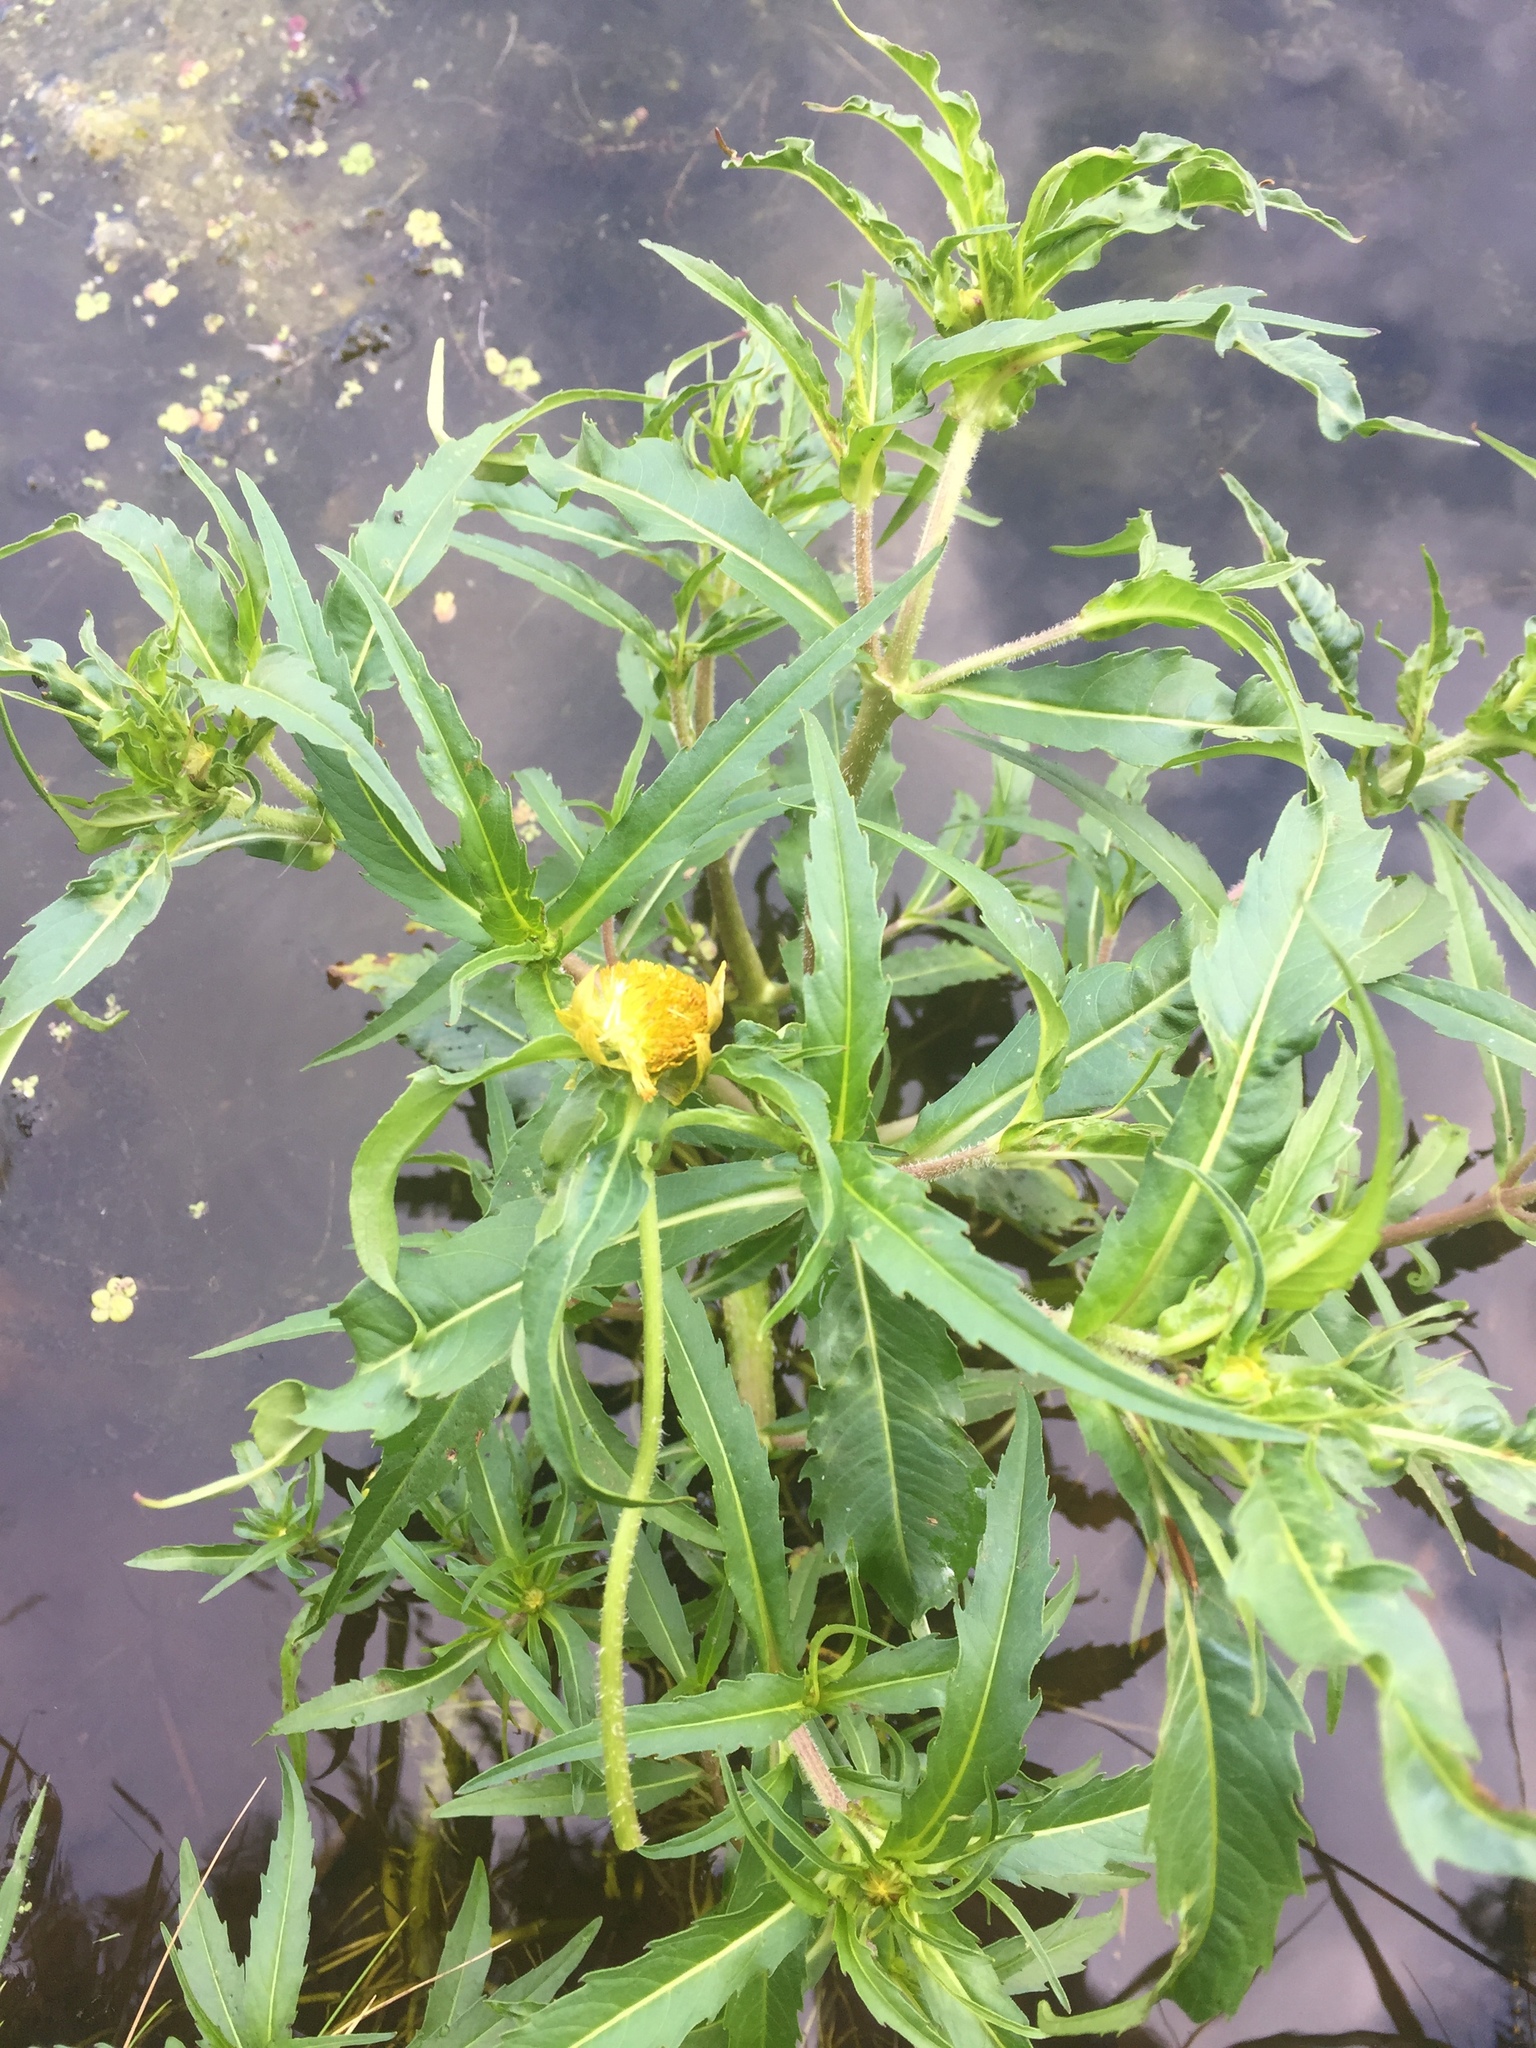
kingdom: Plantae
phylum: Tracheophyta
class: Magnoliopsida
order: Asterales
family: Asteraceae
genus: Bidens
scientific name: Bidens cernua
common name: Nodding bur-marigold
